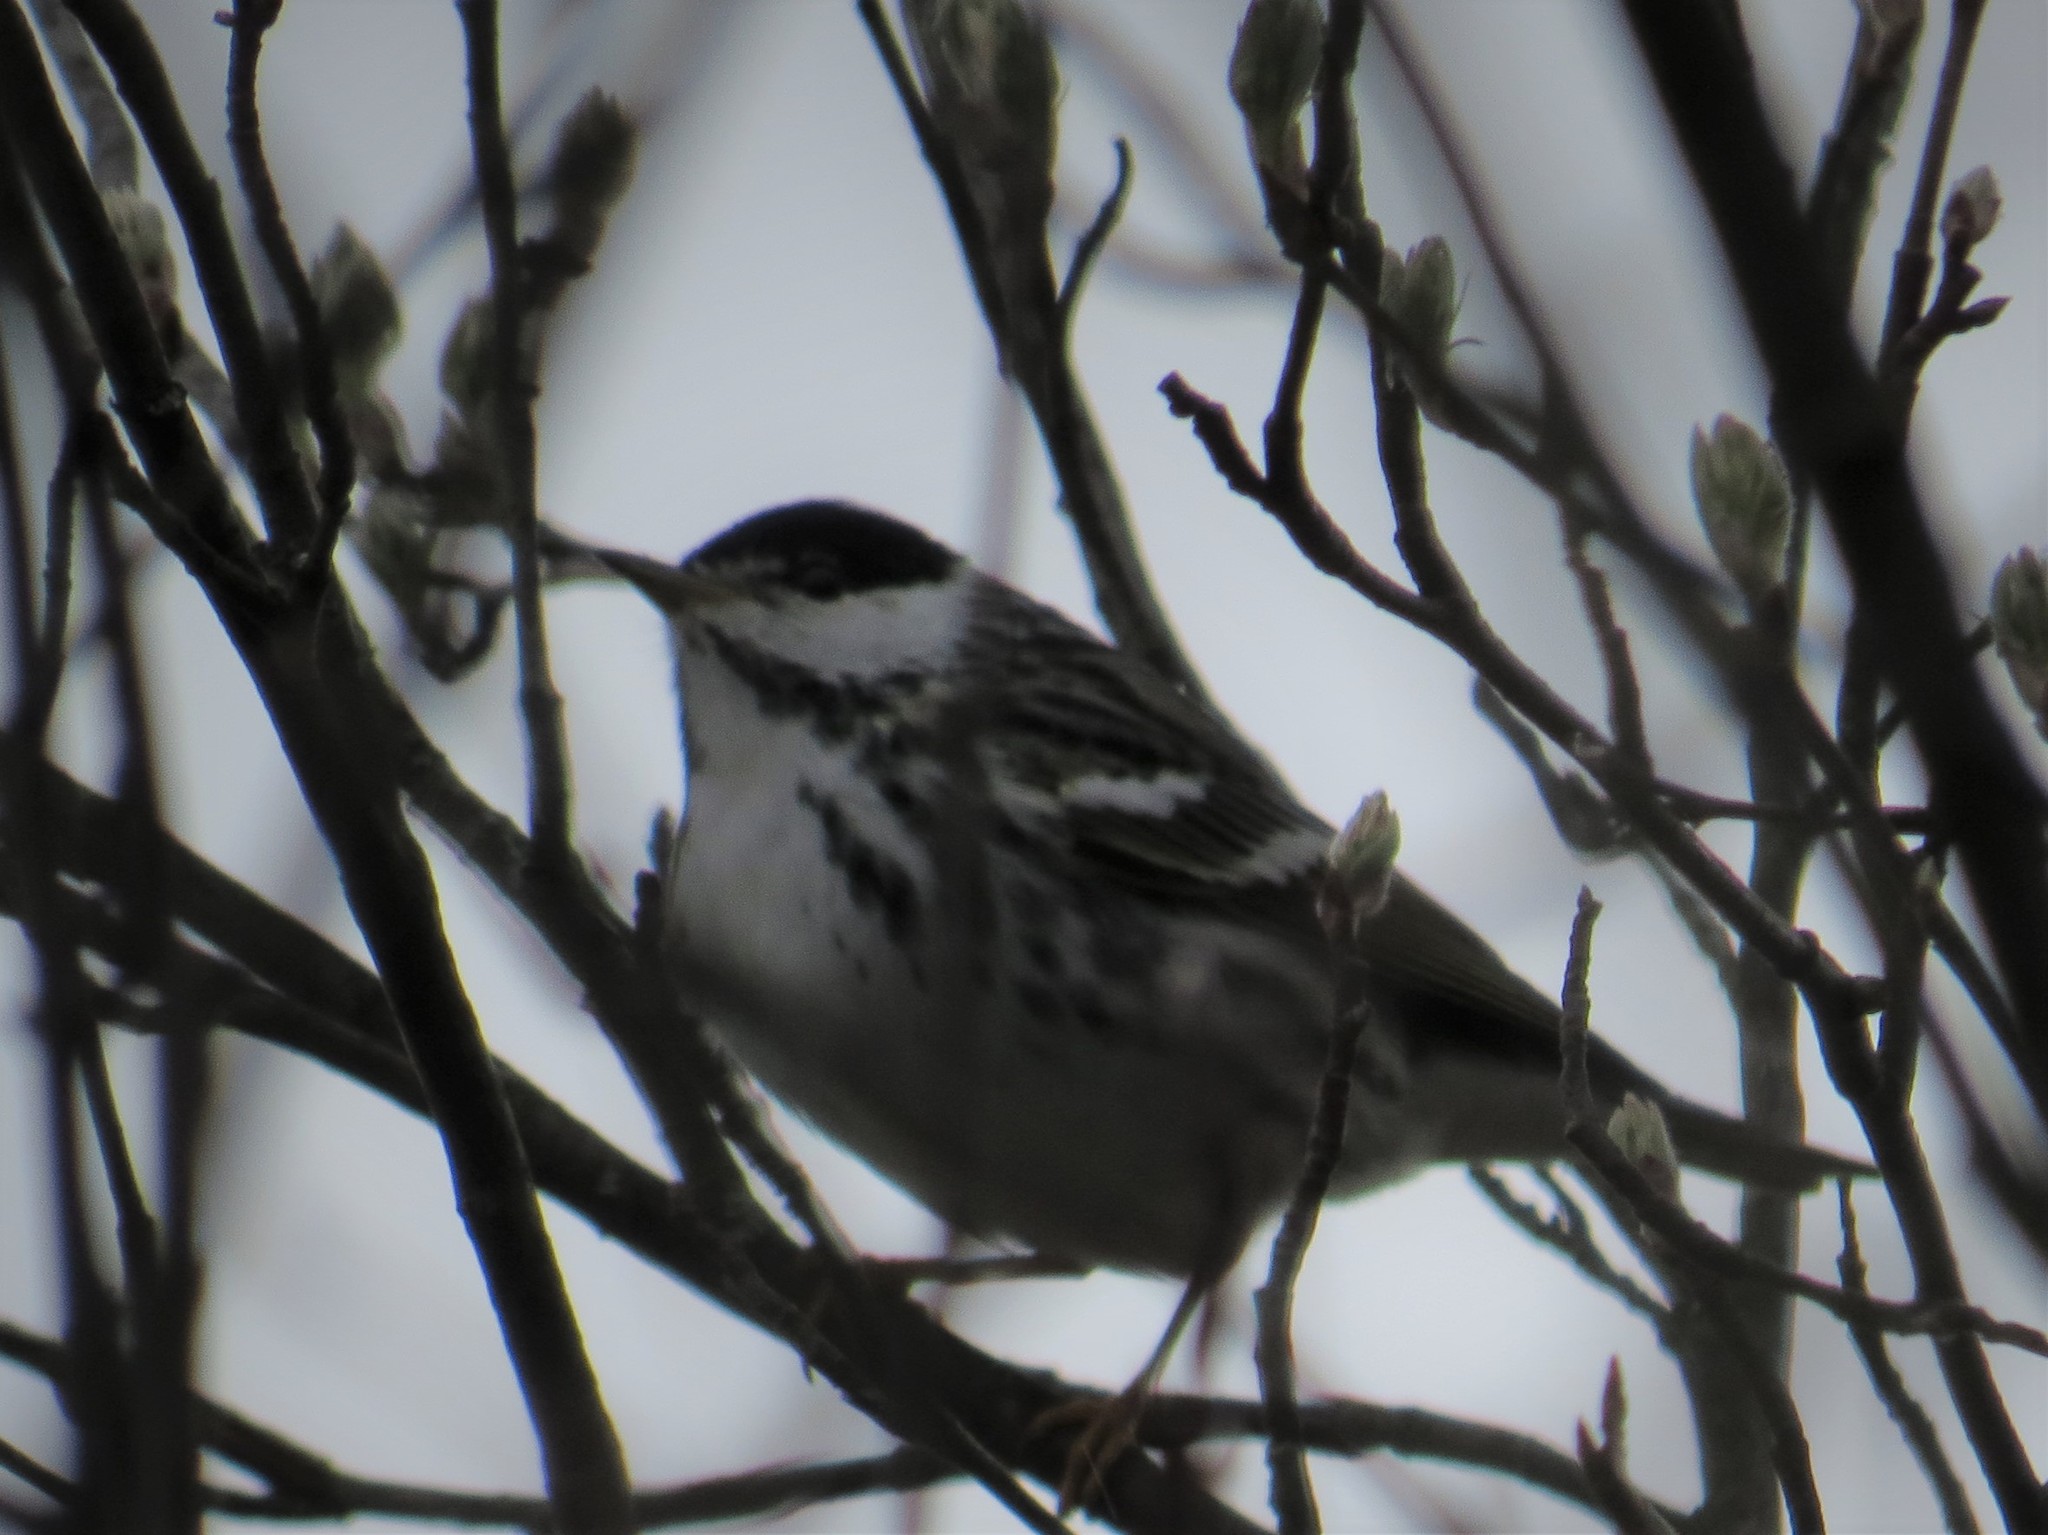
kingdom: Animalia
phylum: Chordata
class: Aves
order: Passeriformes
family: Parulidae
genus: Setophaga
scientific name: Setophaga striata
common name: Blackpoll warbler
